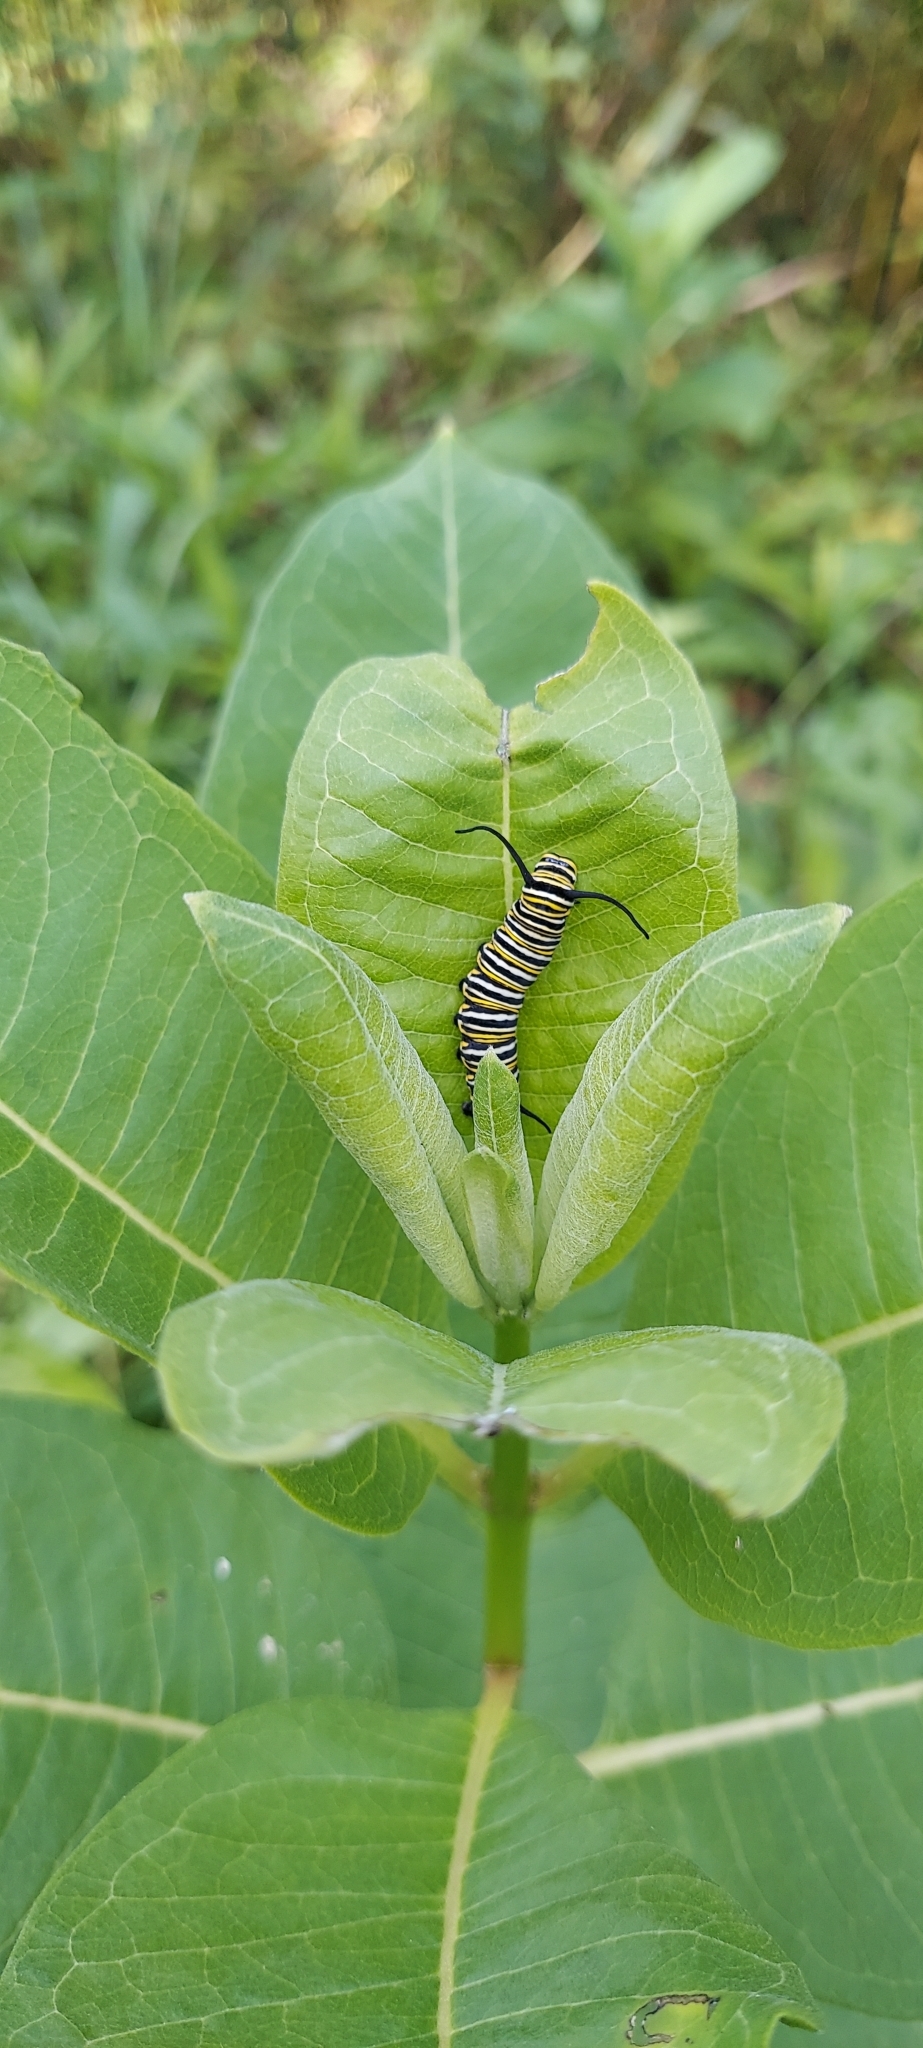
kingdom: Animalia
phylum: Arthropoda
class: Insecta
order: Lepidoptera
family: Nymphalidae
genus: Danaus
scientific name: Danaus plexippus
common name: Monarch
